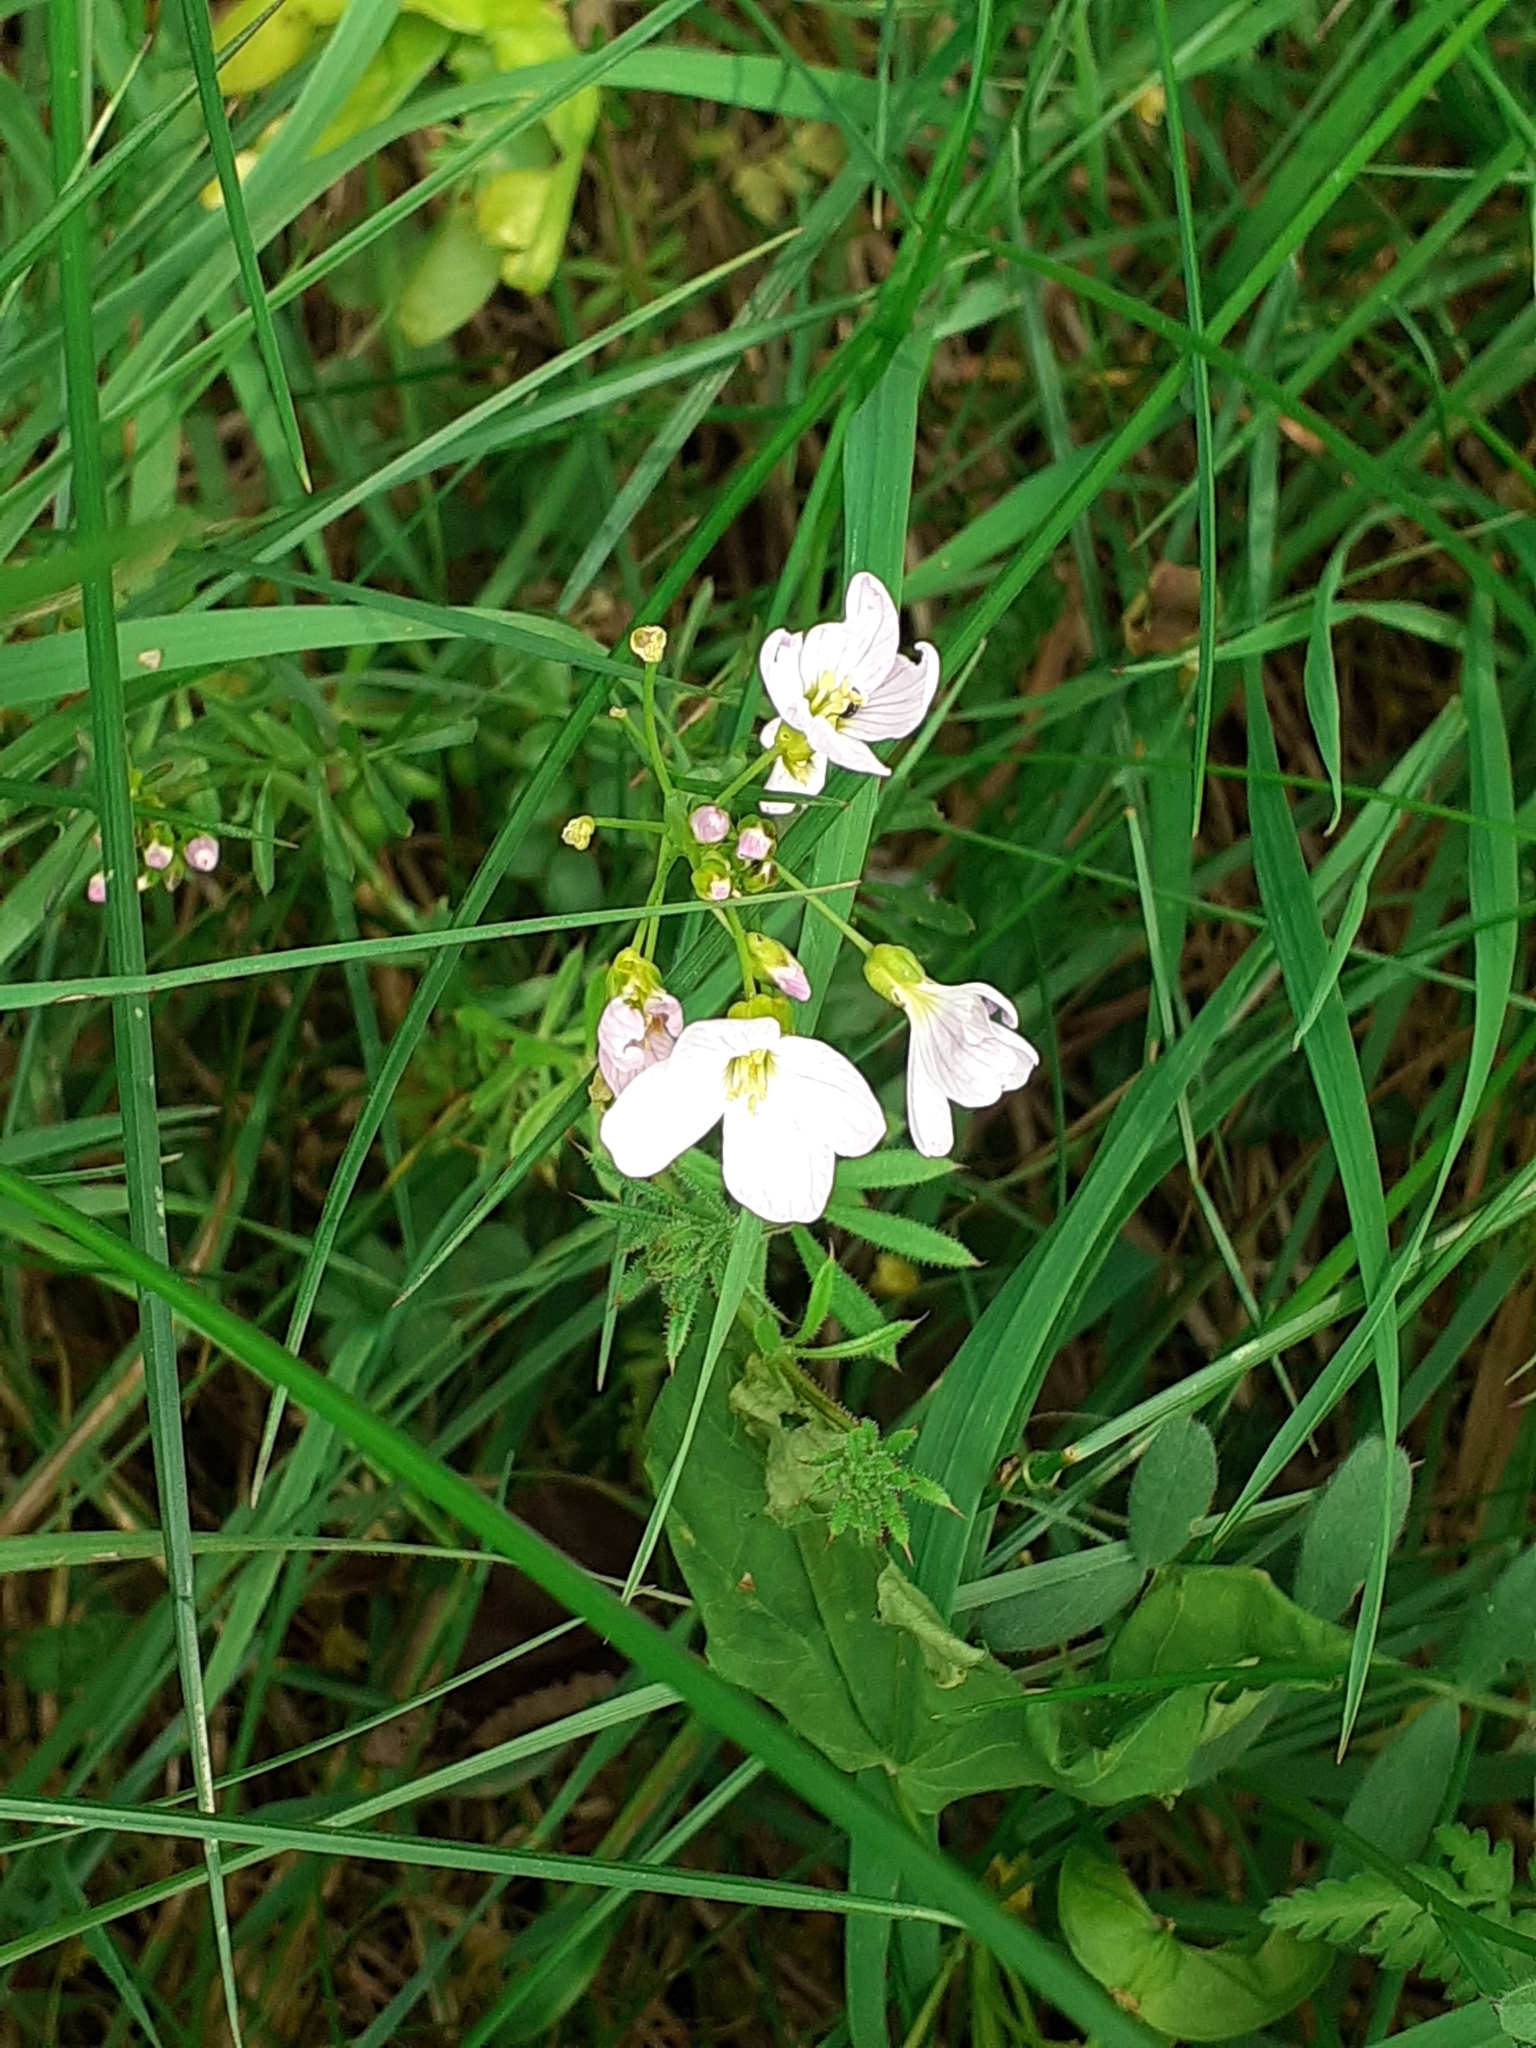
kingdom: Plantae
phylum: Tracheophyta
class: Magnoliopsida
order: Brassicales
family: Brassicaceae
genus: Cardamine
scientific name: Cardamine pratensis
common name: Cuckoo flower
